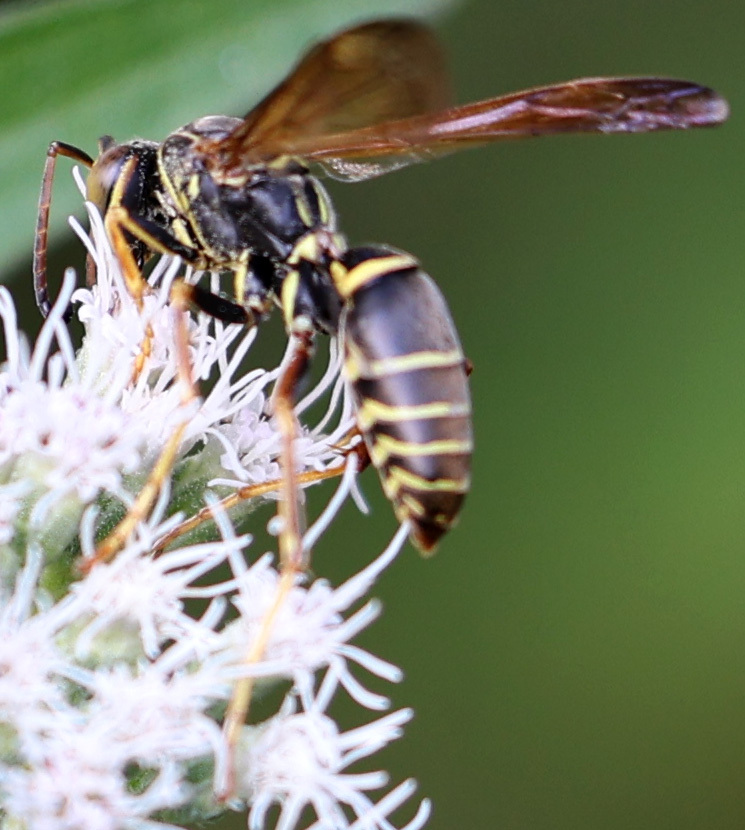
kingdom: Animalia
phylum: Arthropoda
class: Insecta
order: Hymenoptera
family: Eumenidae
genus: Polistes
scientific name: Polistes fuscatus
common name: Dark paper wasp
